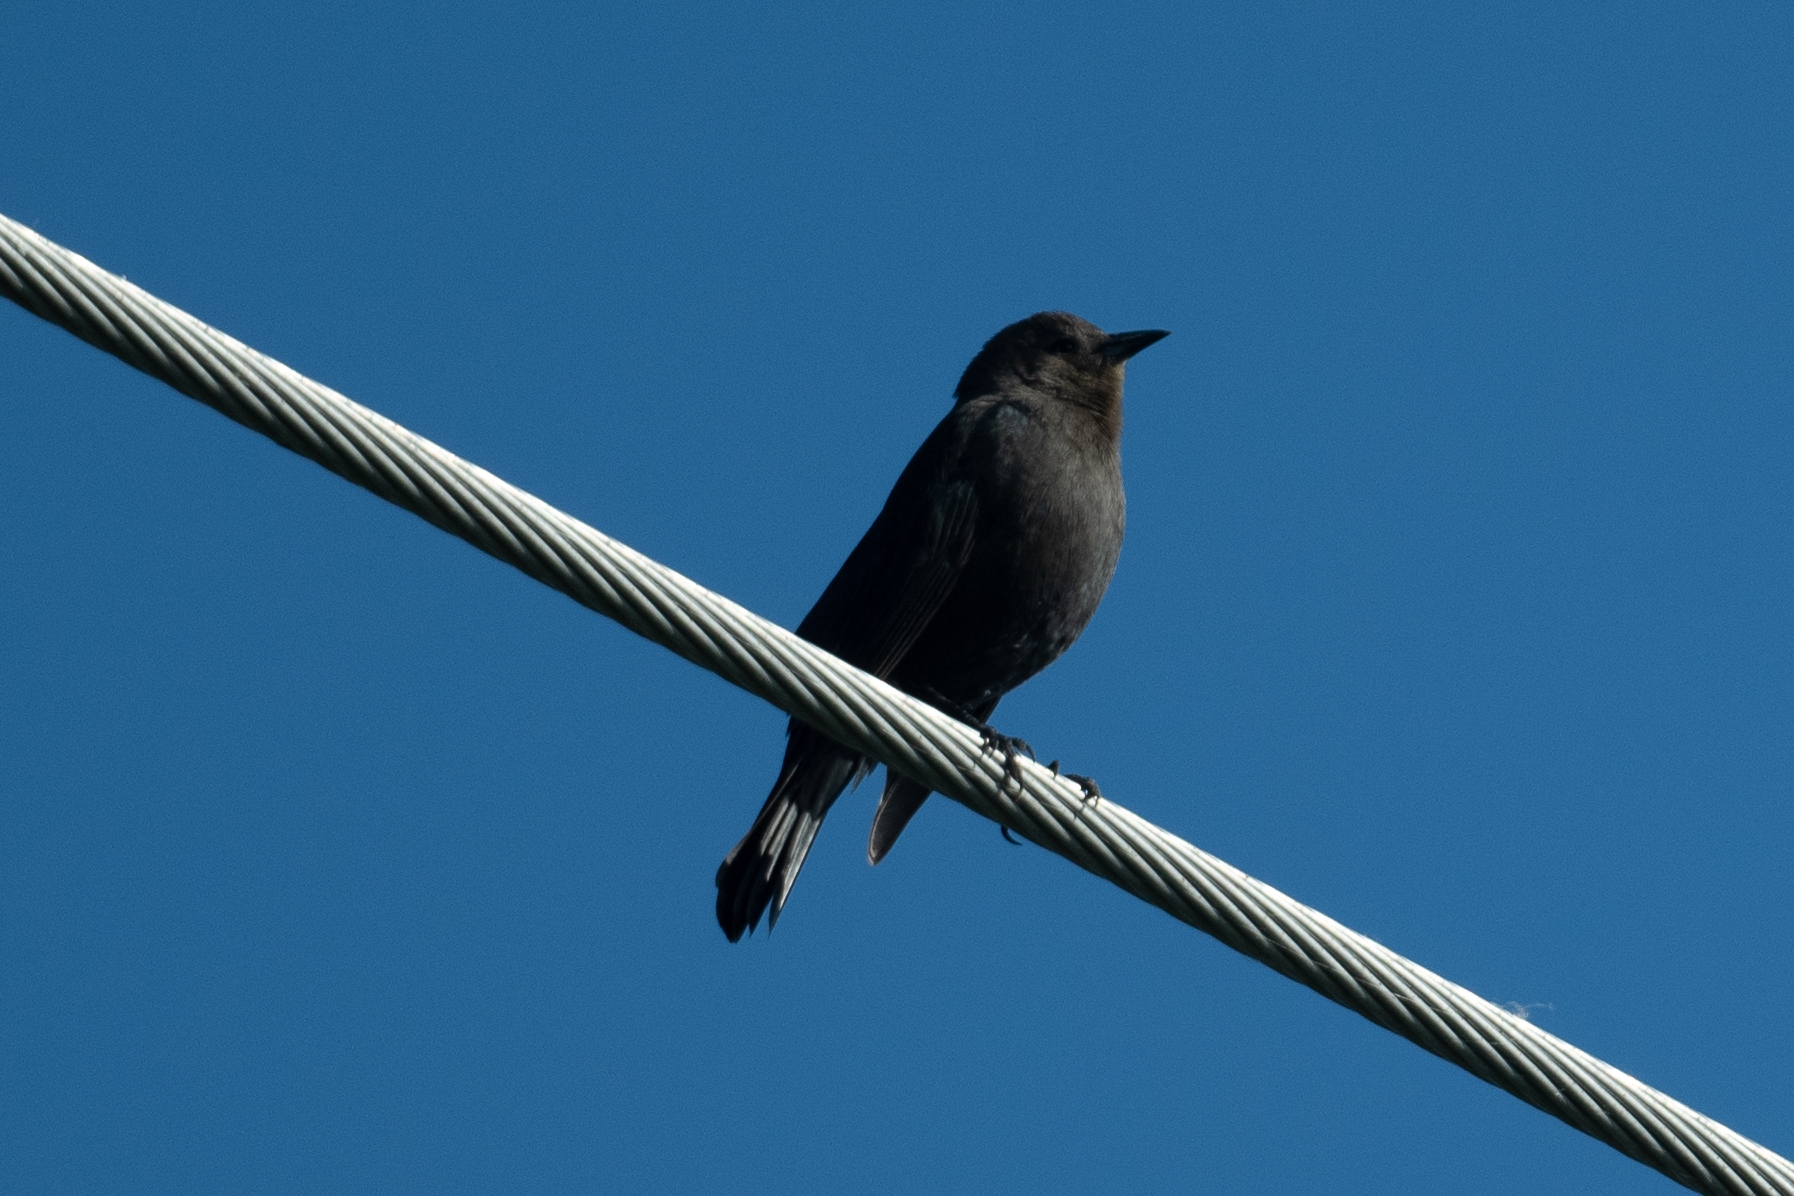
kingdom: Animalia
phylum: Chordata
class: Aves
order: Passeriformes
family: Icteridae
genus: Euphagus
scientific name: Euphagus cyanocephalus
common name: Brewer's blackbird
